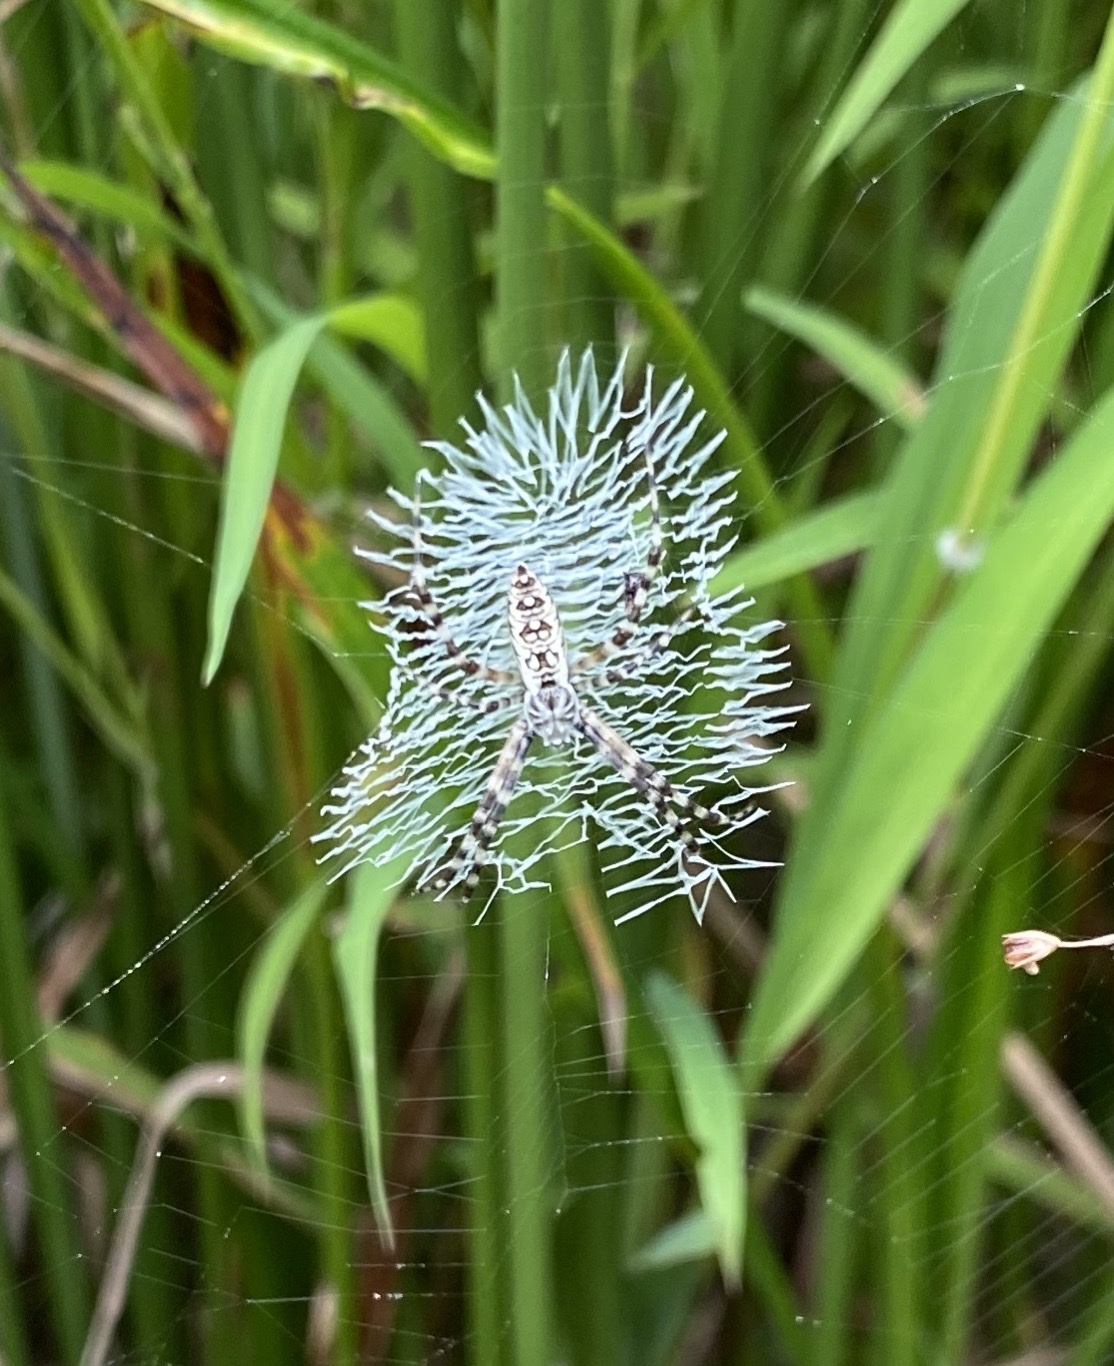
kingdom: Animalia
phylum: Arthropoda
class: Arachnida
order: Araneae
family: Araneidae
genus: Argiope
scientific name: Argiope aurantia
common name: Orb weavers
